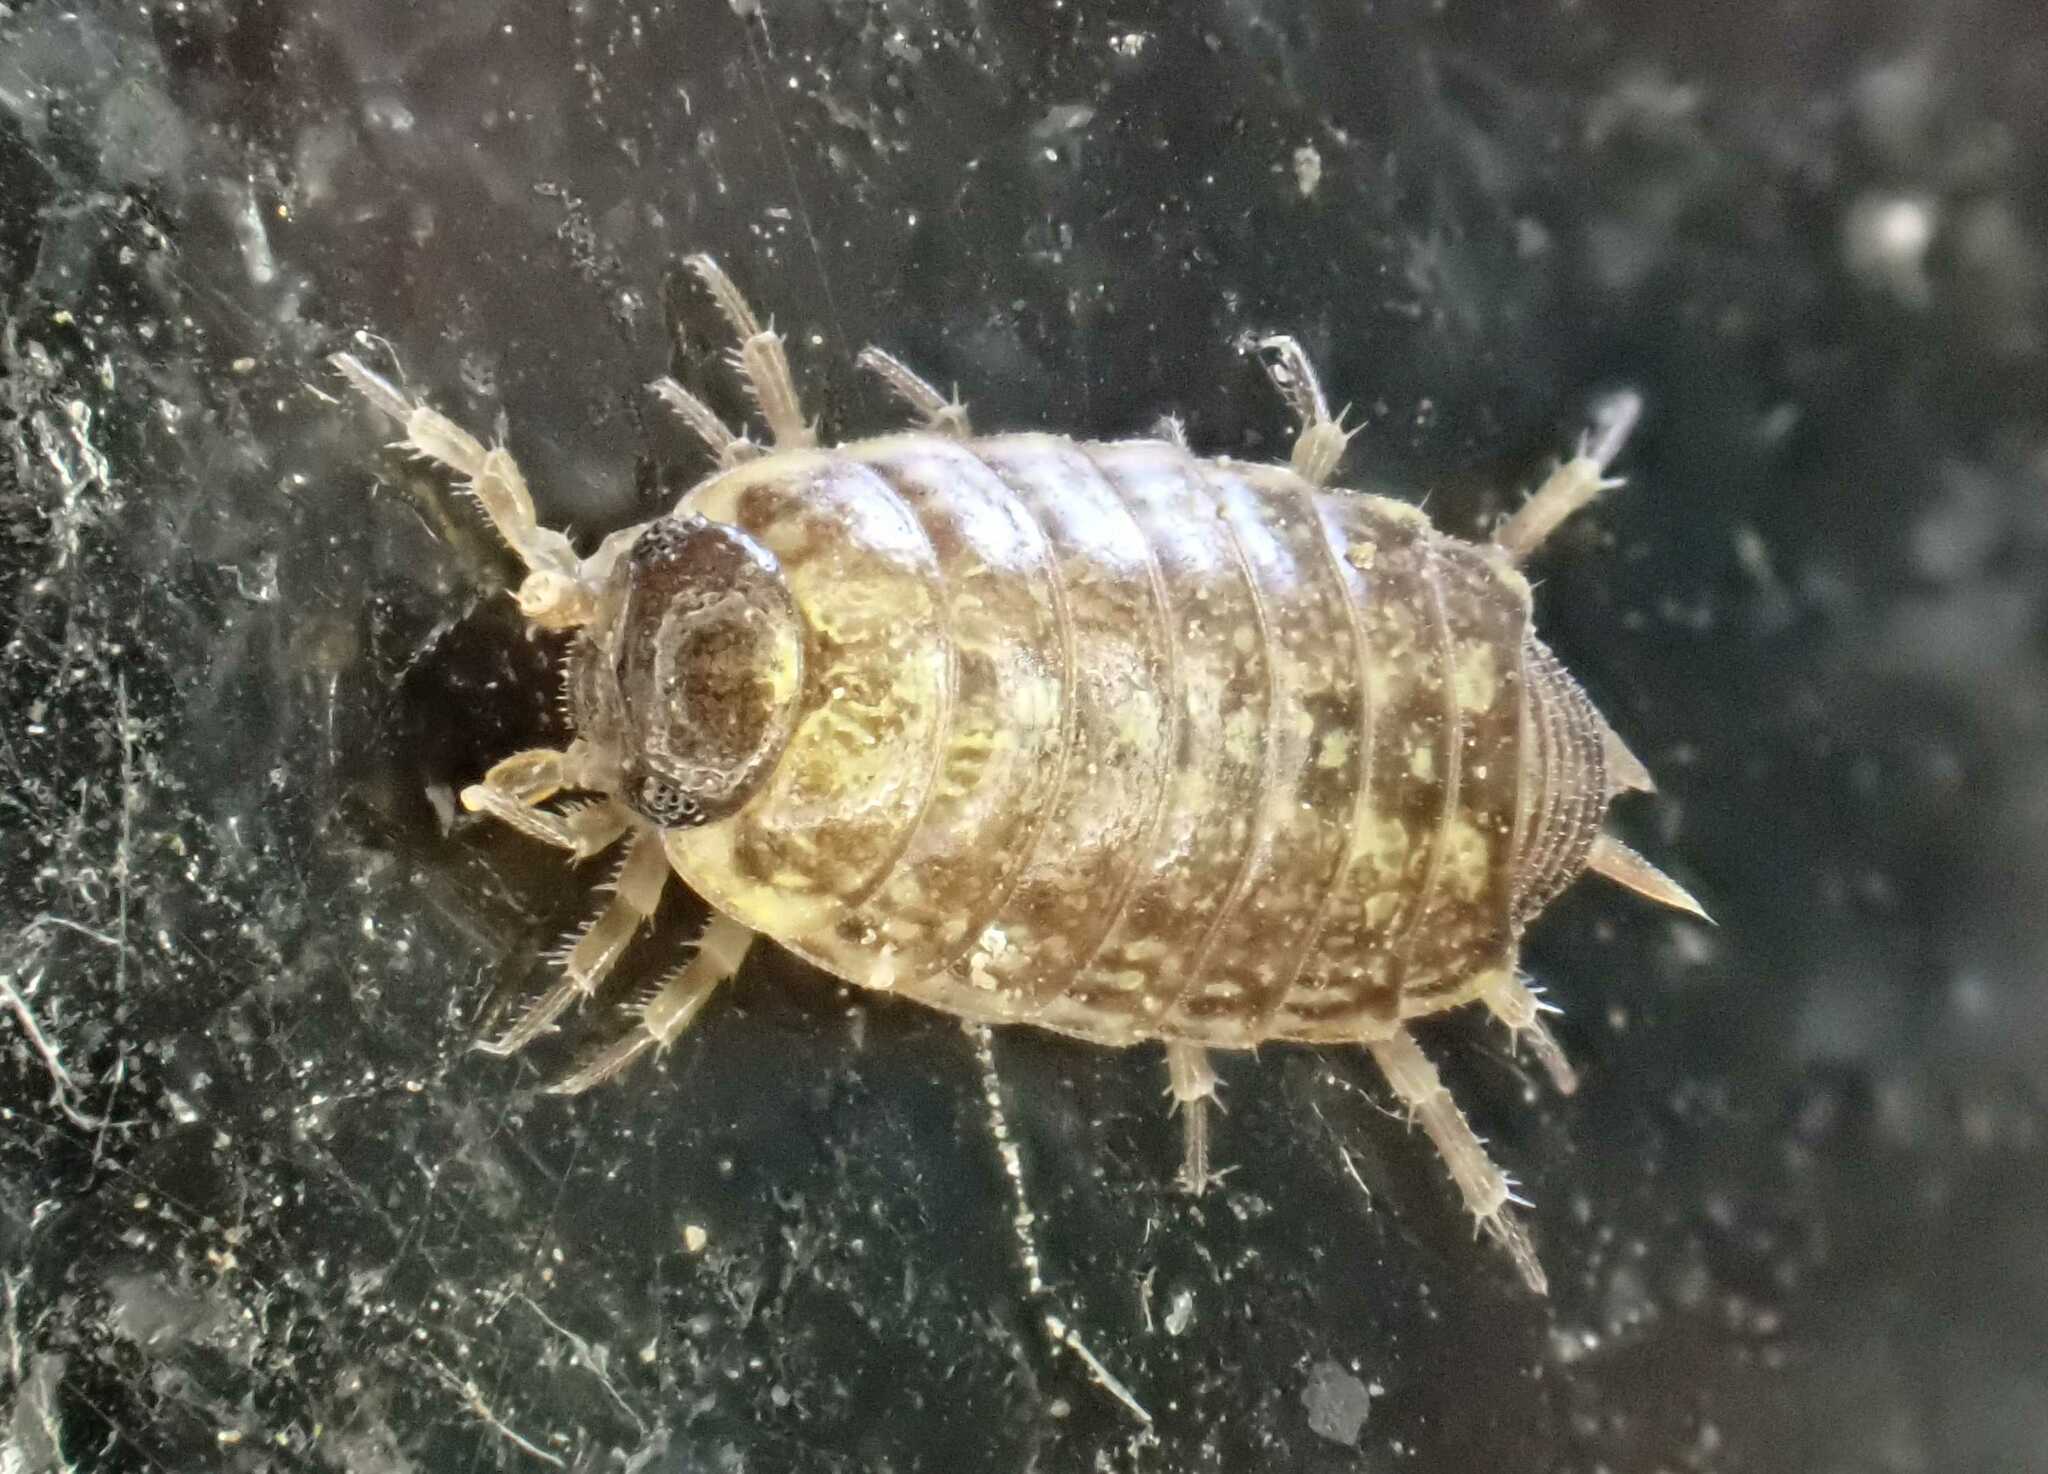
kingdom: Animalia
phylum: Arthropoda
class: Malacostraca
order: Isopoda
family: Philosciidae
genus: Philoscia
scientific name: Philoscia muscorum
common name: Common striped woodlouse
